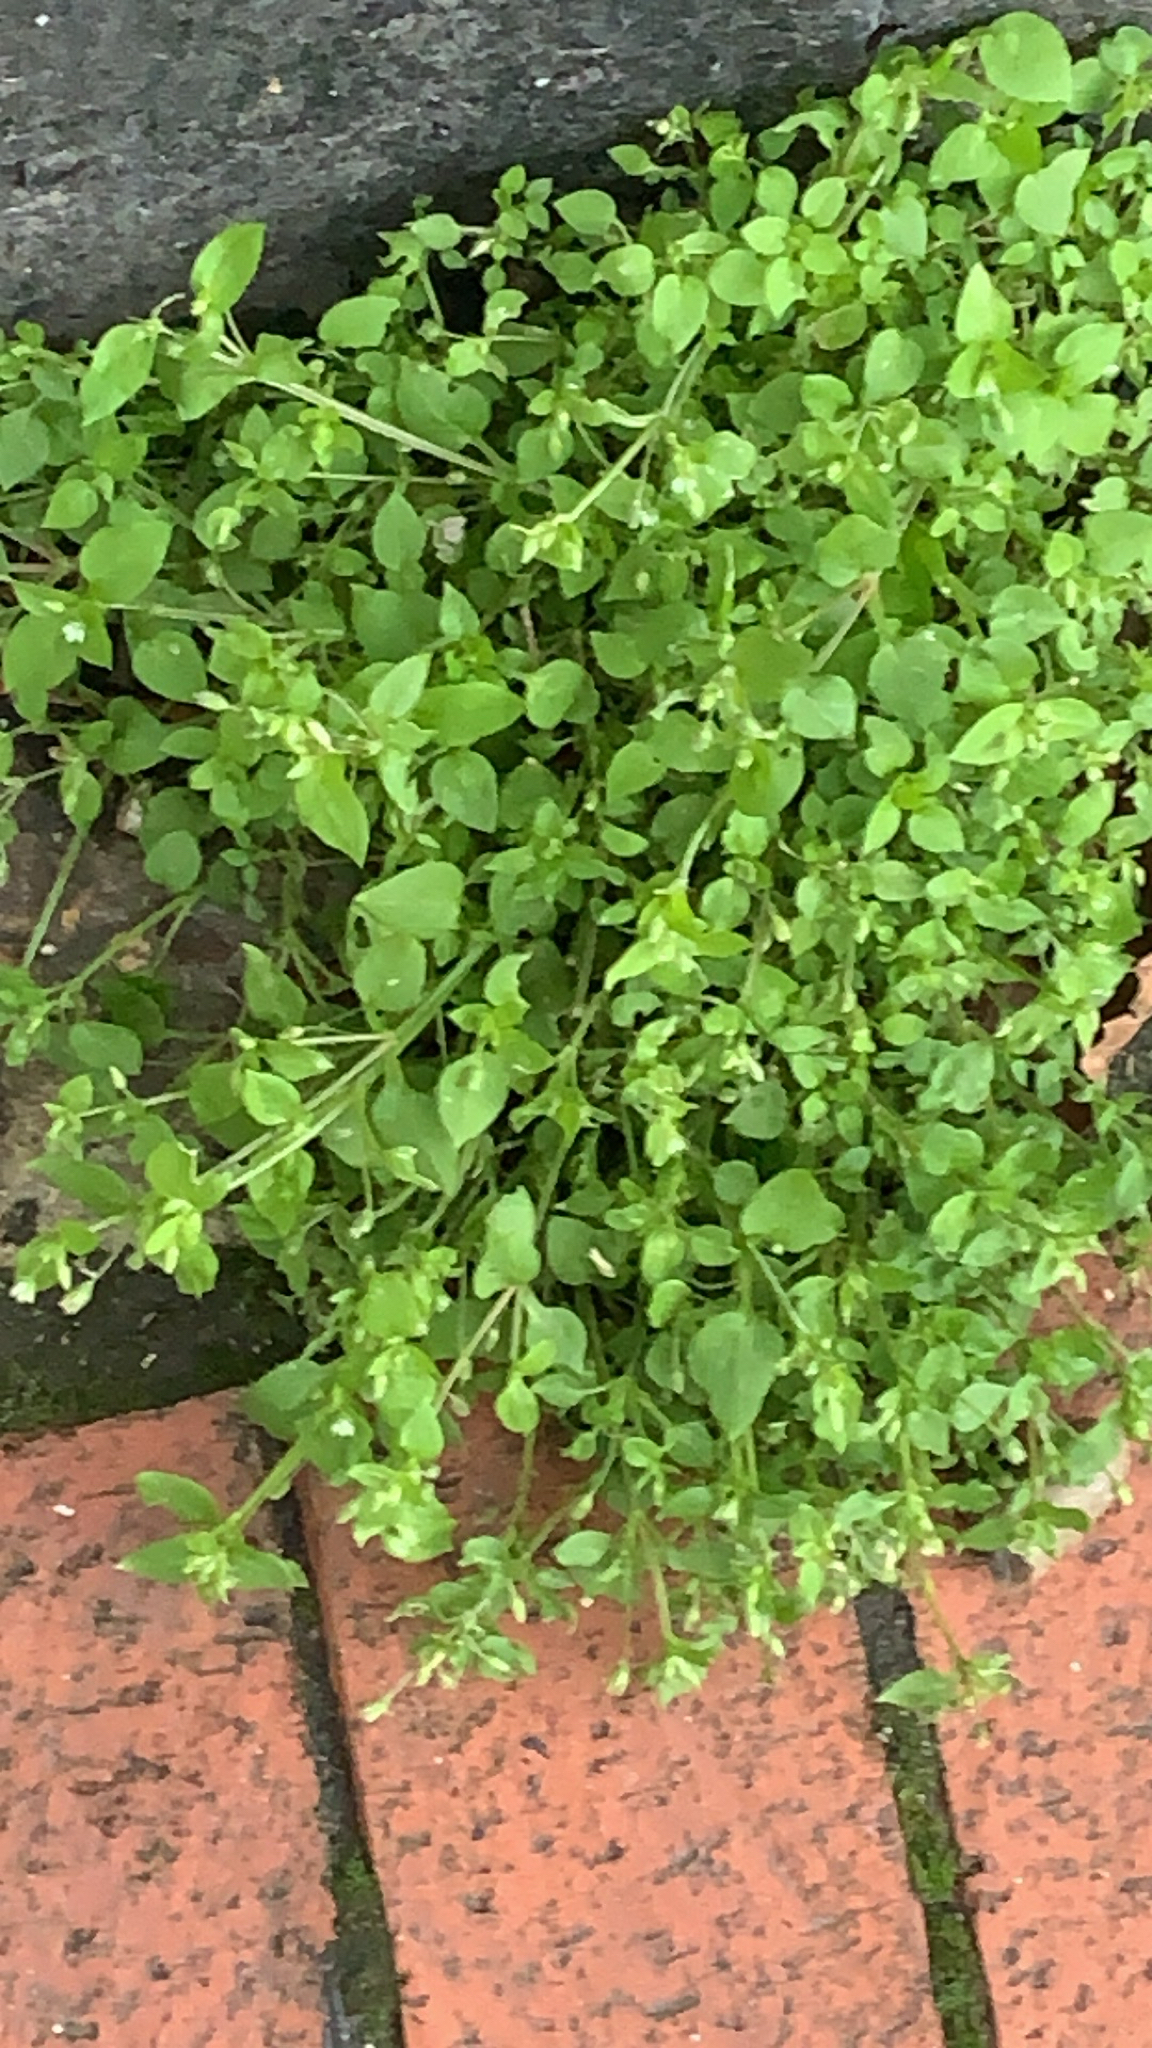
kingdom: Plantae
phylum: Tracheophyta
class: Magnoliopsida
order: Caryophyllales
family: Caryophyllaceae
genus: Stellaria
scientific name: Stellaria media
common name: Common chickweed
